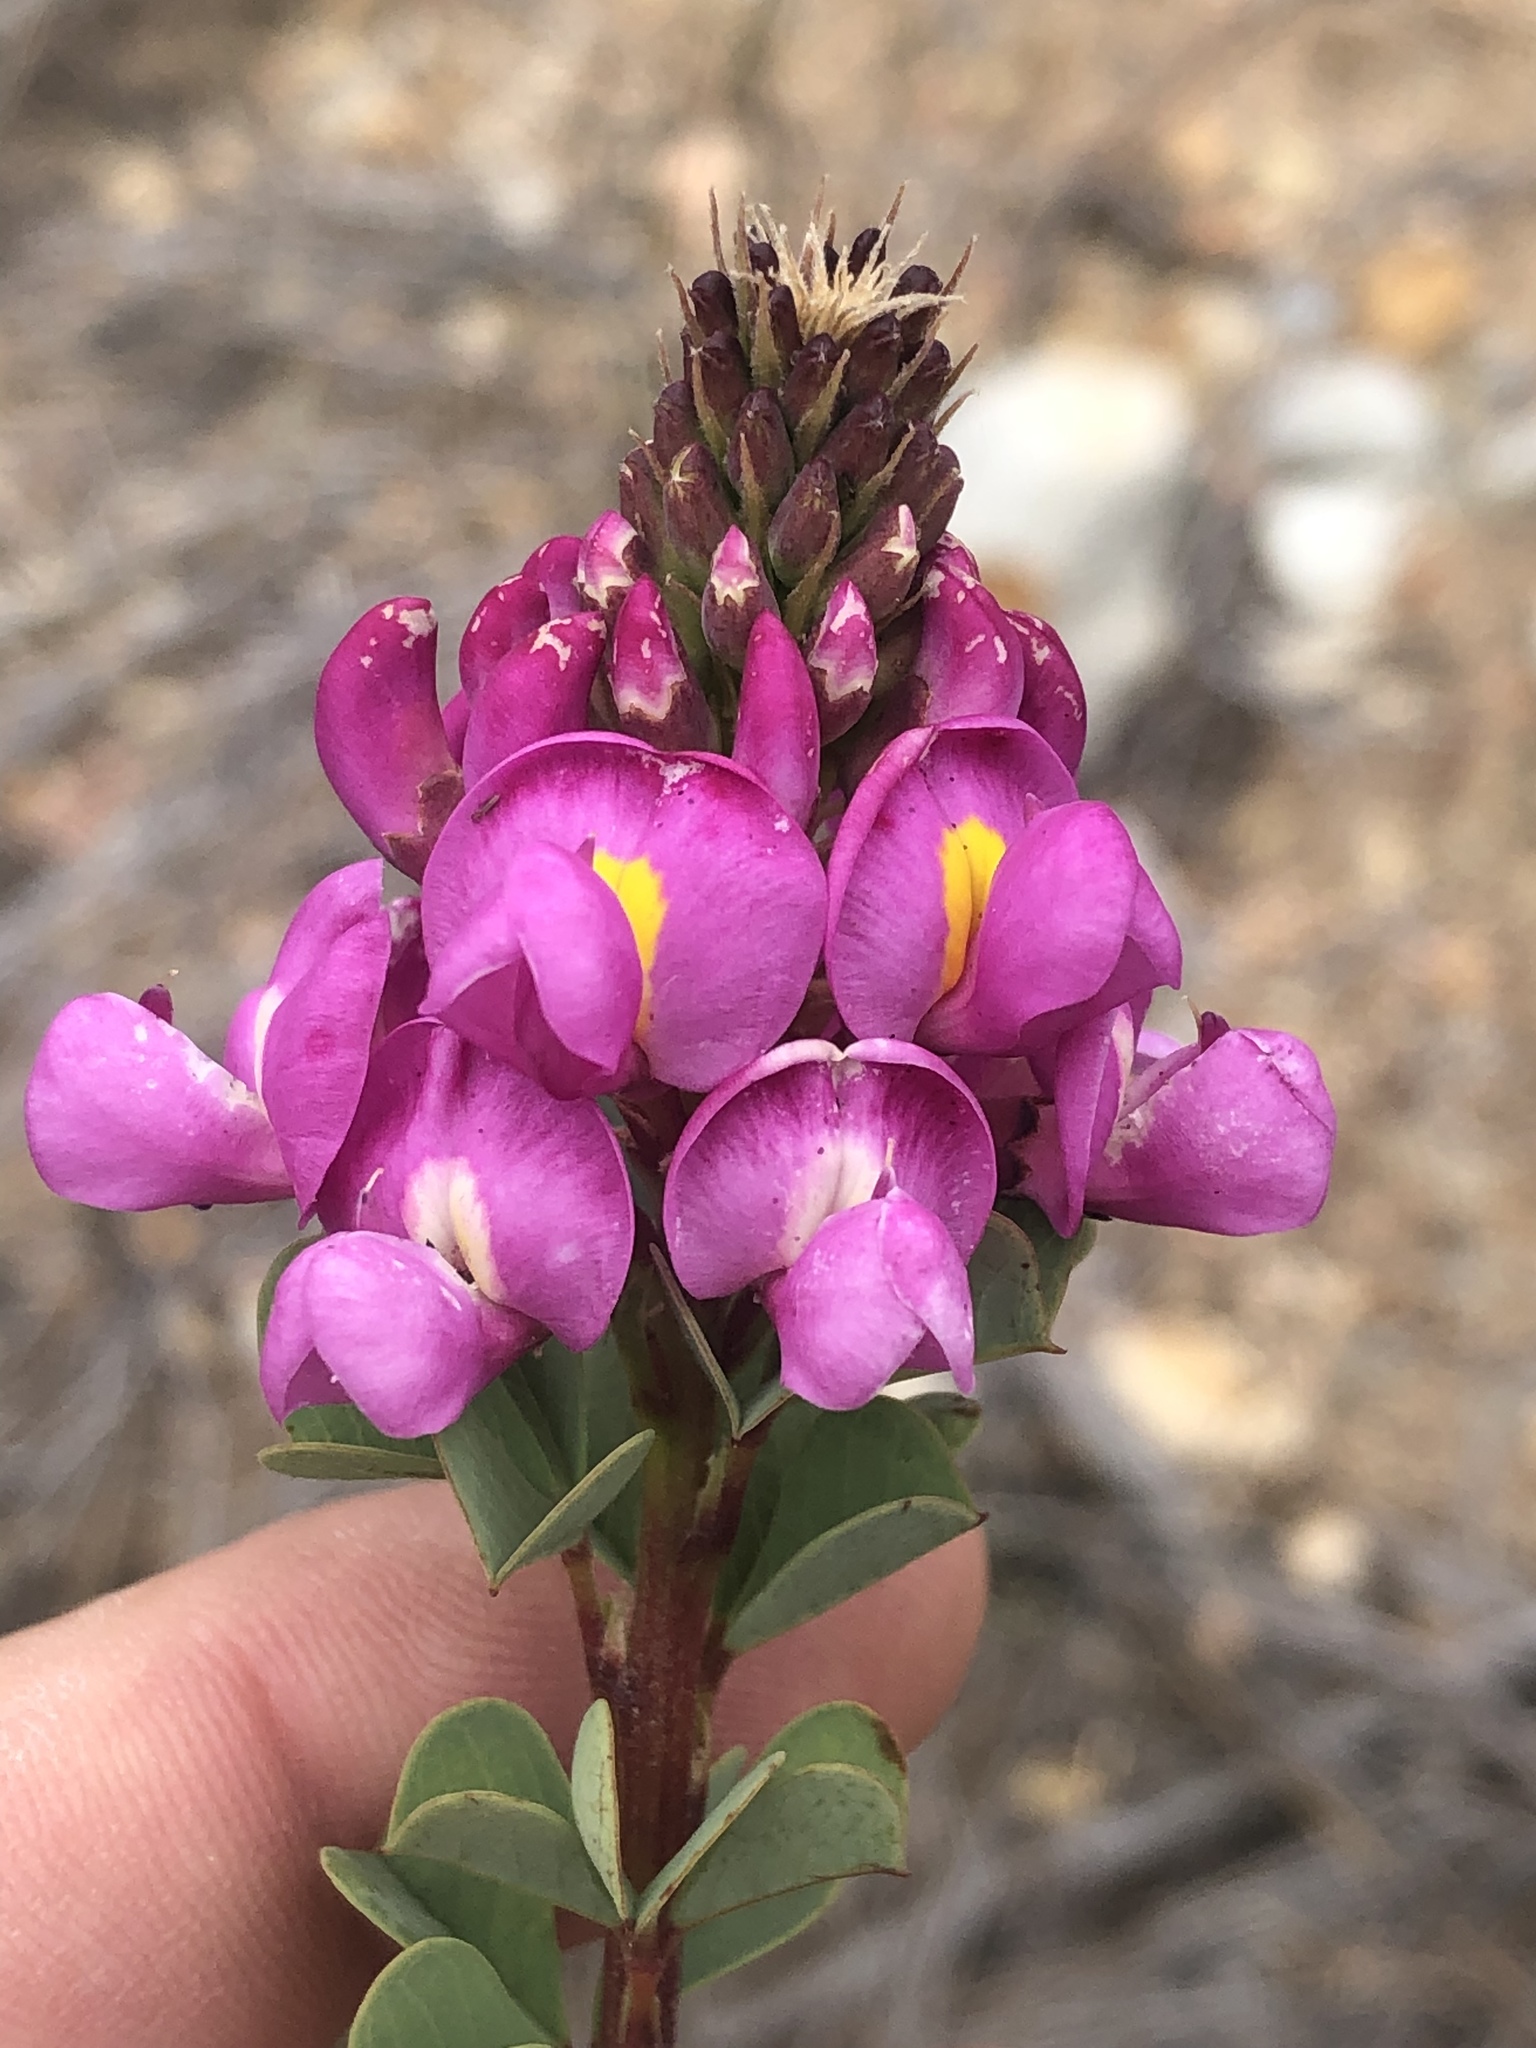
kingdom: Plantae
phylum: Tracheophyta
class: Magnoliopsida
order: Fabales
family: Fabaceae
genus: Hypocalyptus
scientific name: Hypocalyptus sophoroides
